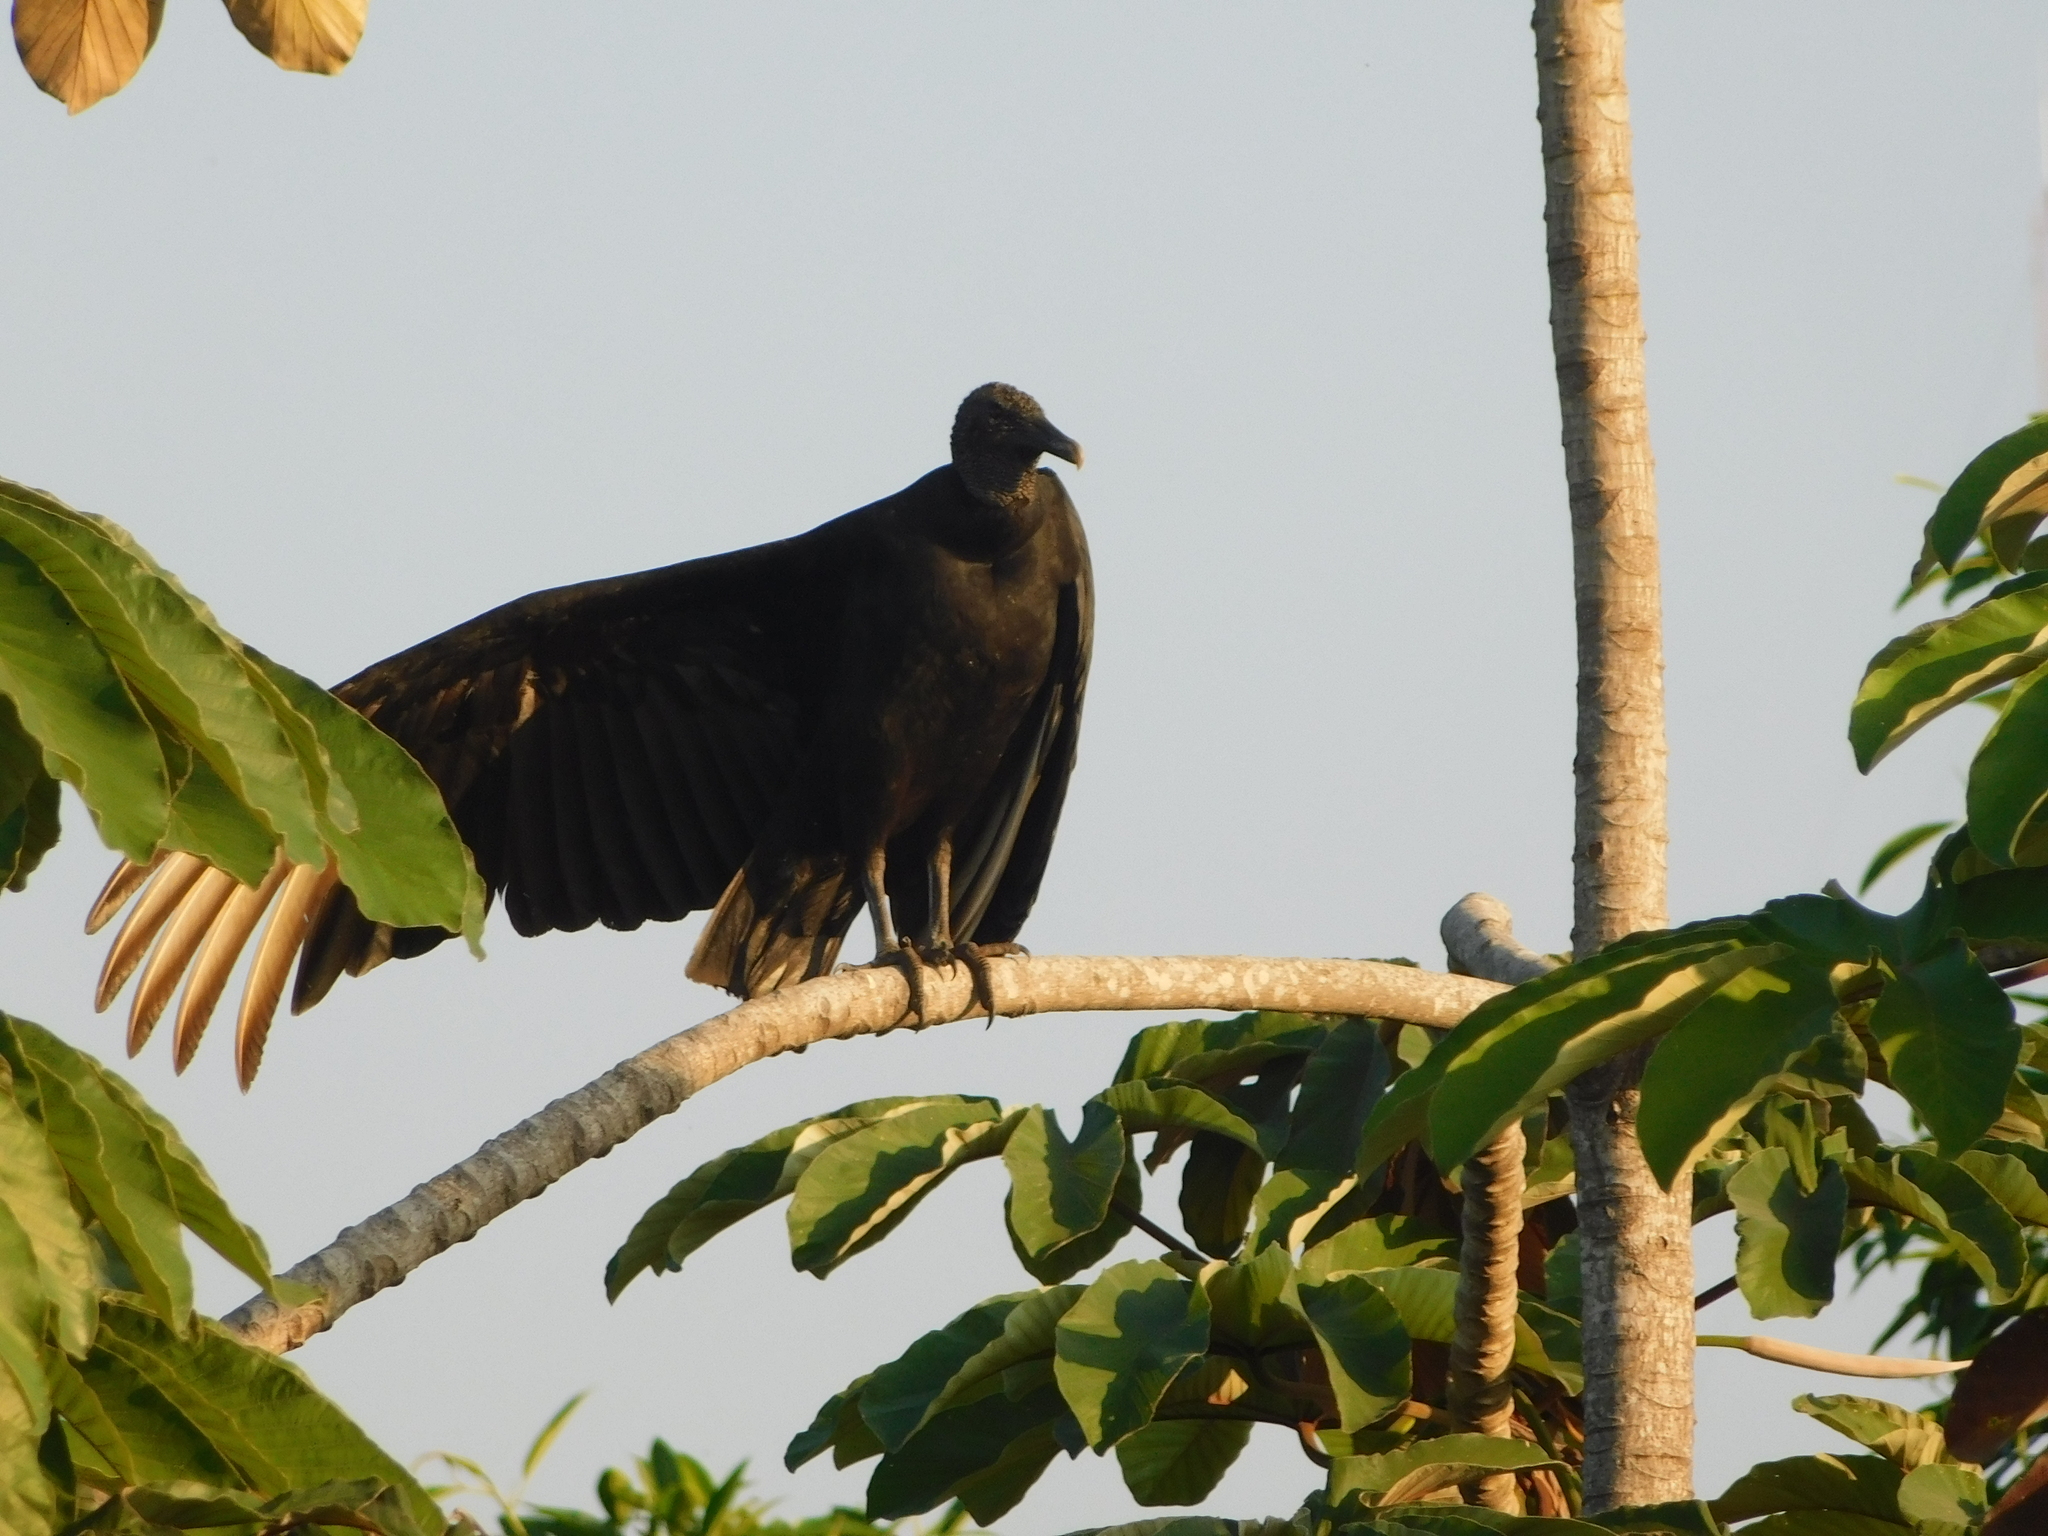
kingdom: Animalia
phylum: Chordata
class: Aves
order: Accipitriformes
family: Cathartidae
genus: Coragyps
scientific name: Coragyps atratus
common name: Black vulture
